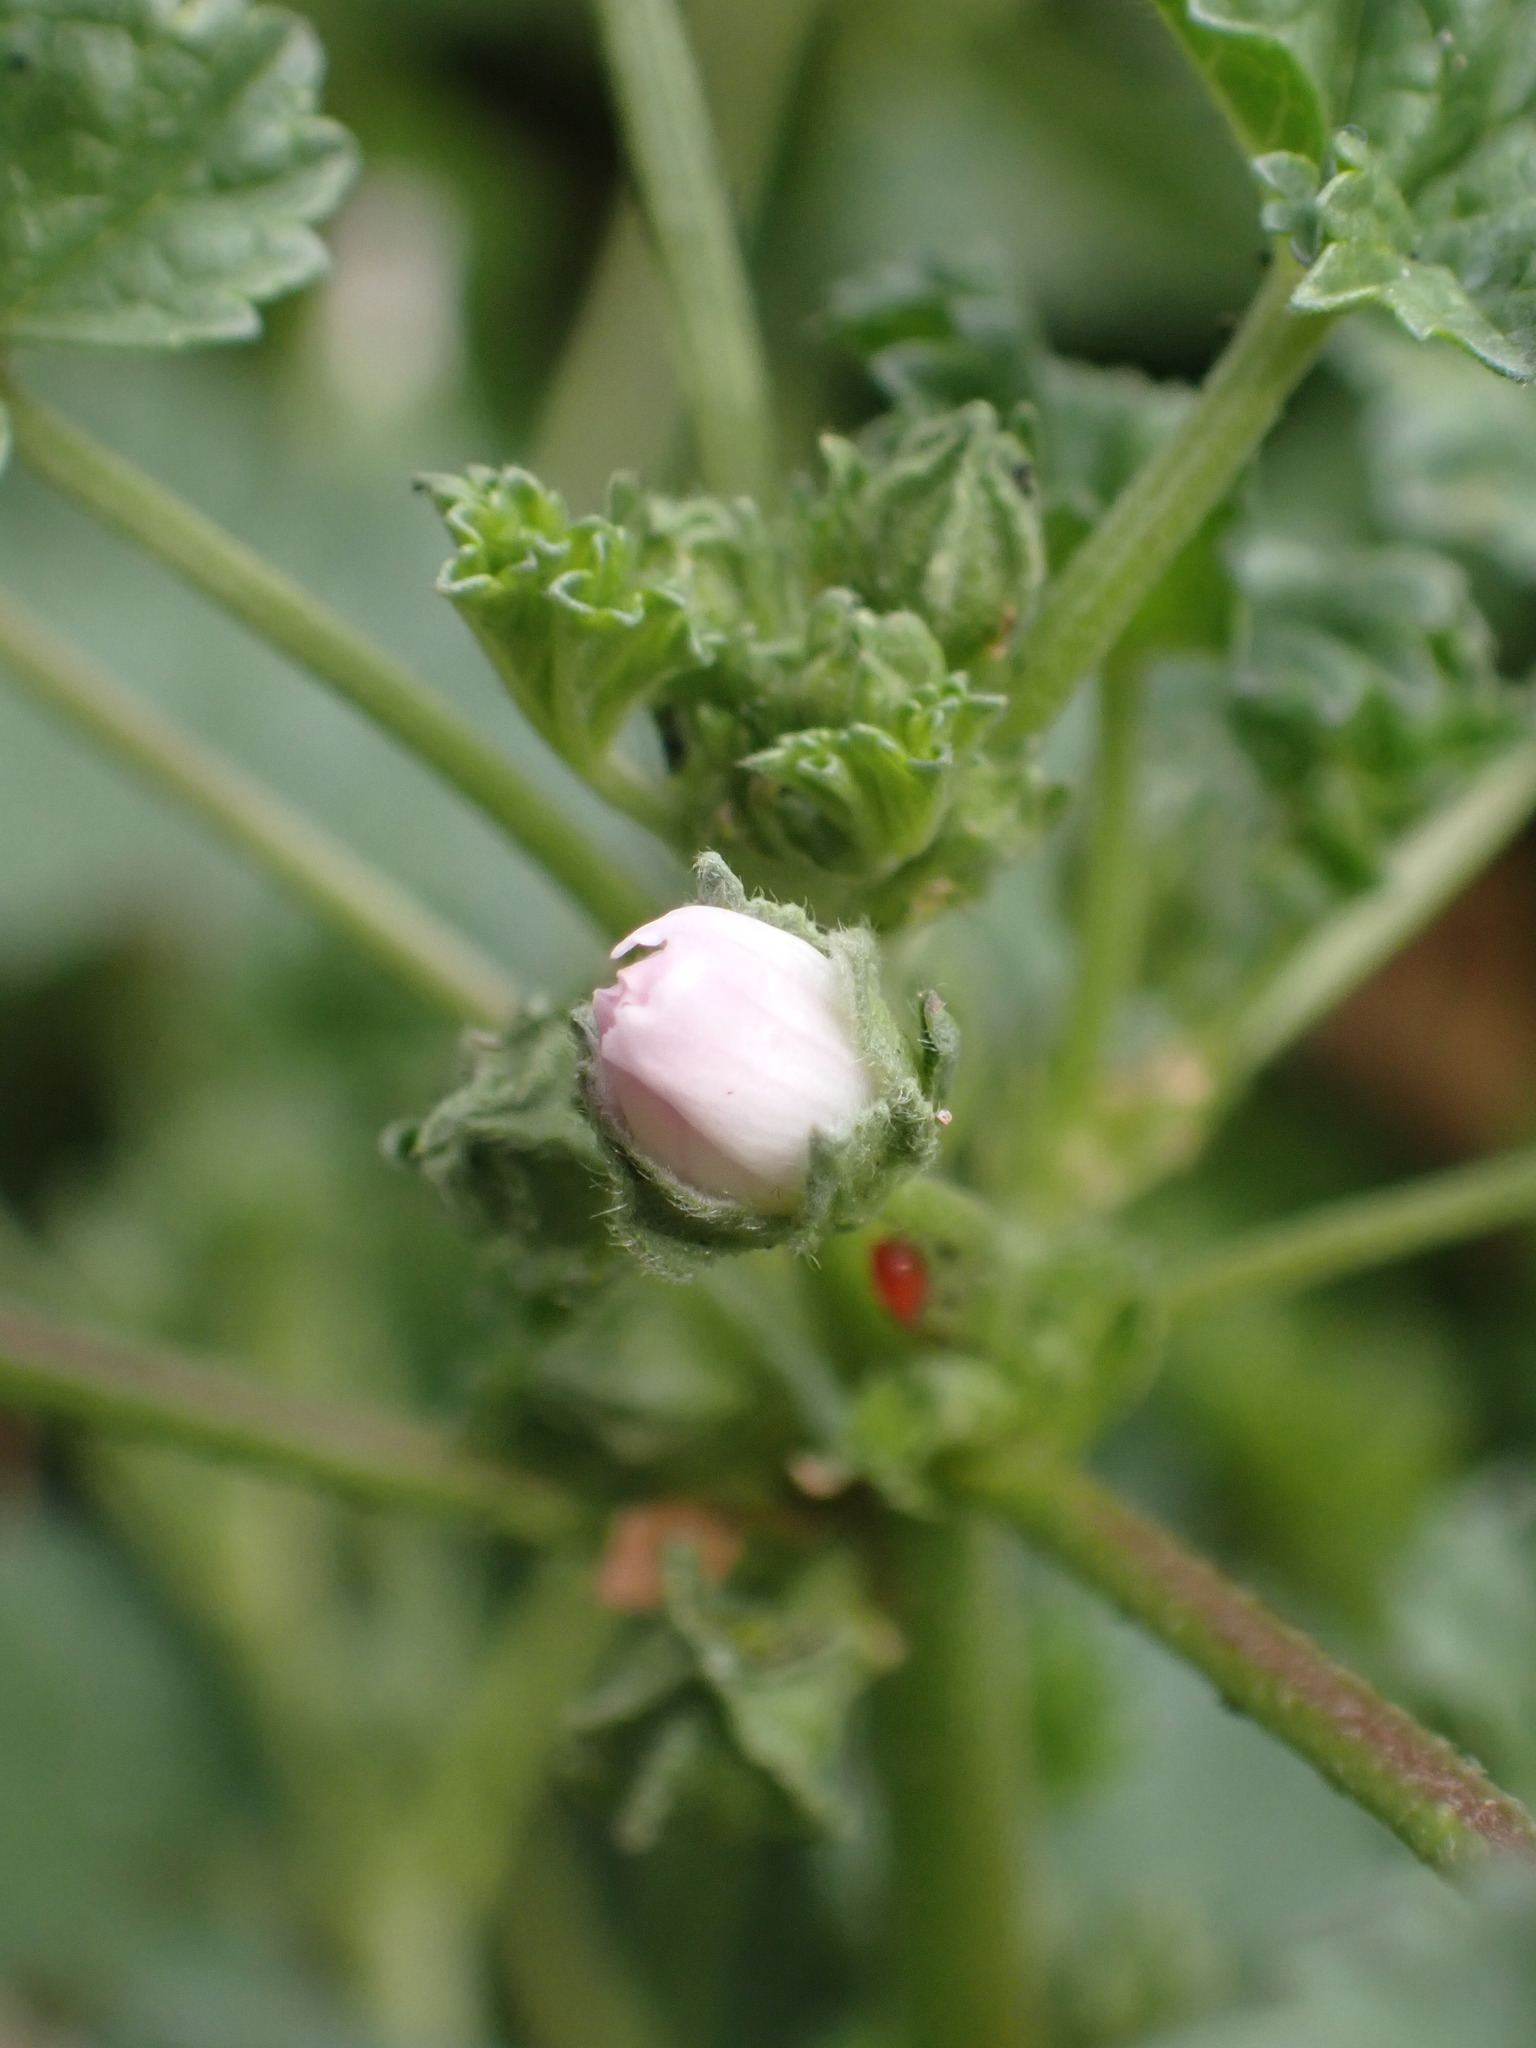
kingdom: Plantae
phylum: Tracheophyta
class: Magnoliopsida
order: Malvales
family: Malvaceae
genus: Malva
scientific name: Malva neglecta
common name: Common mallow
